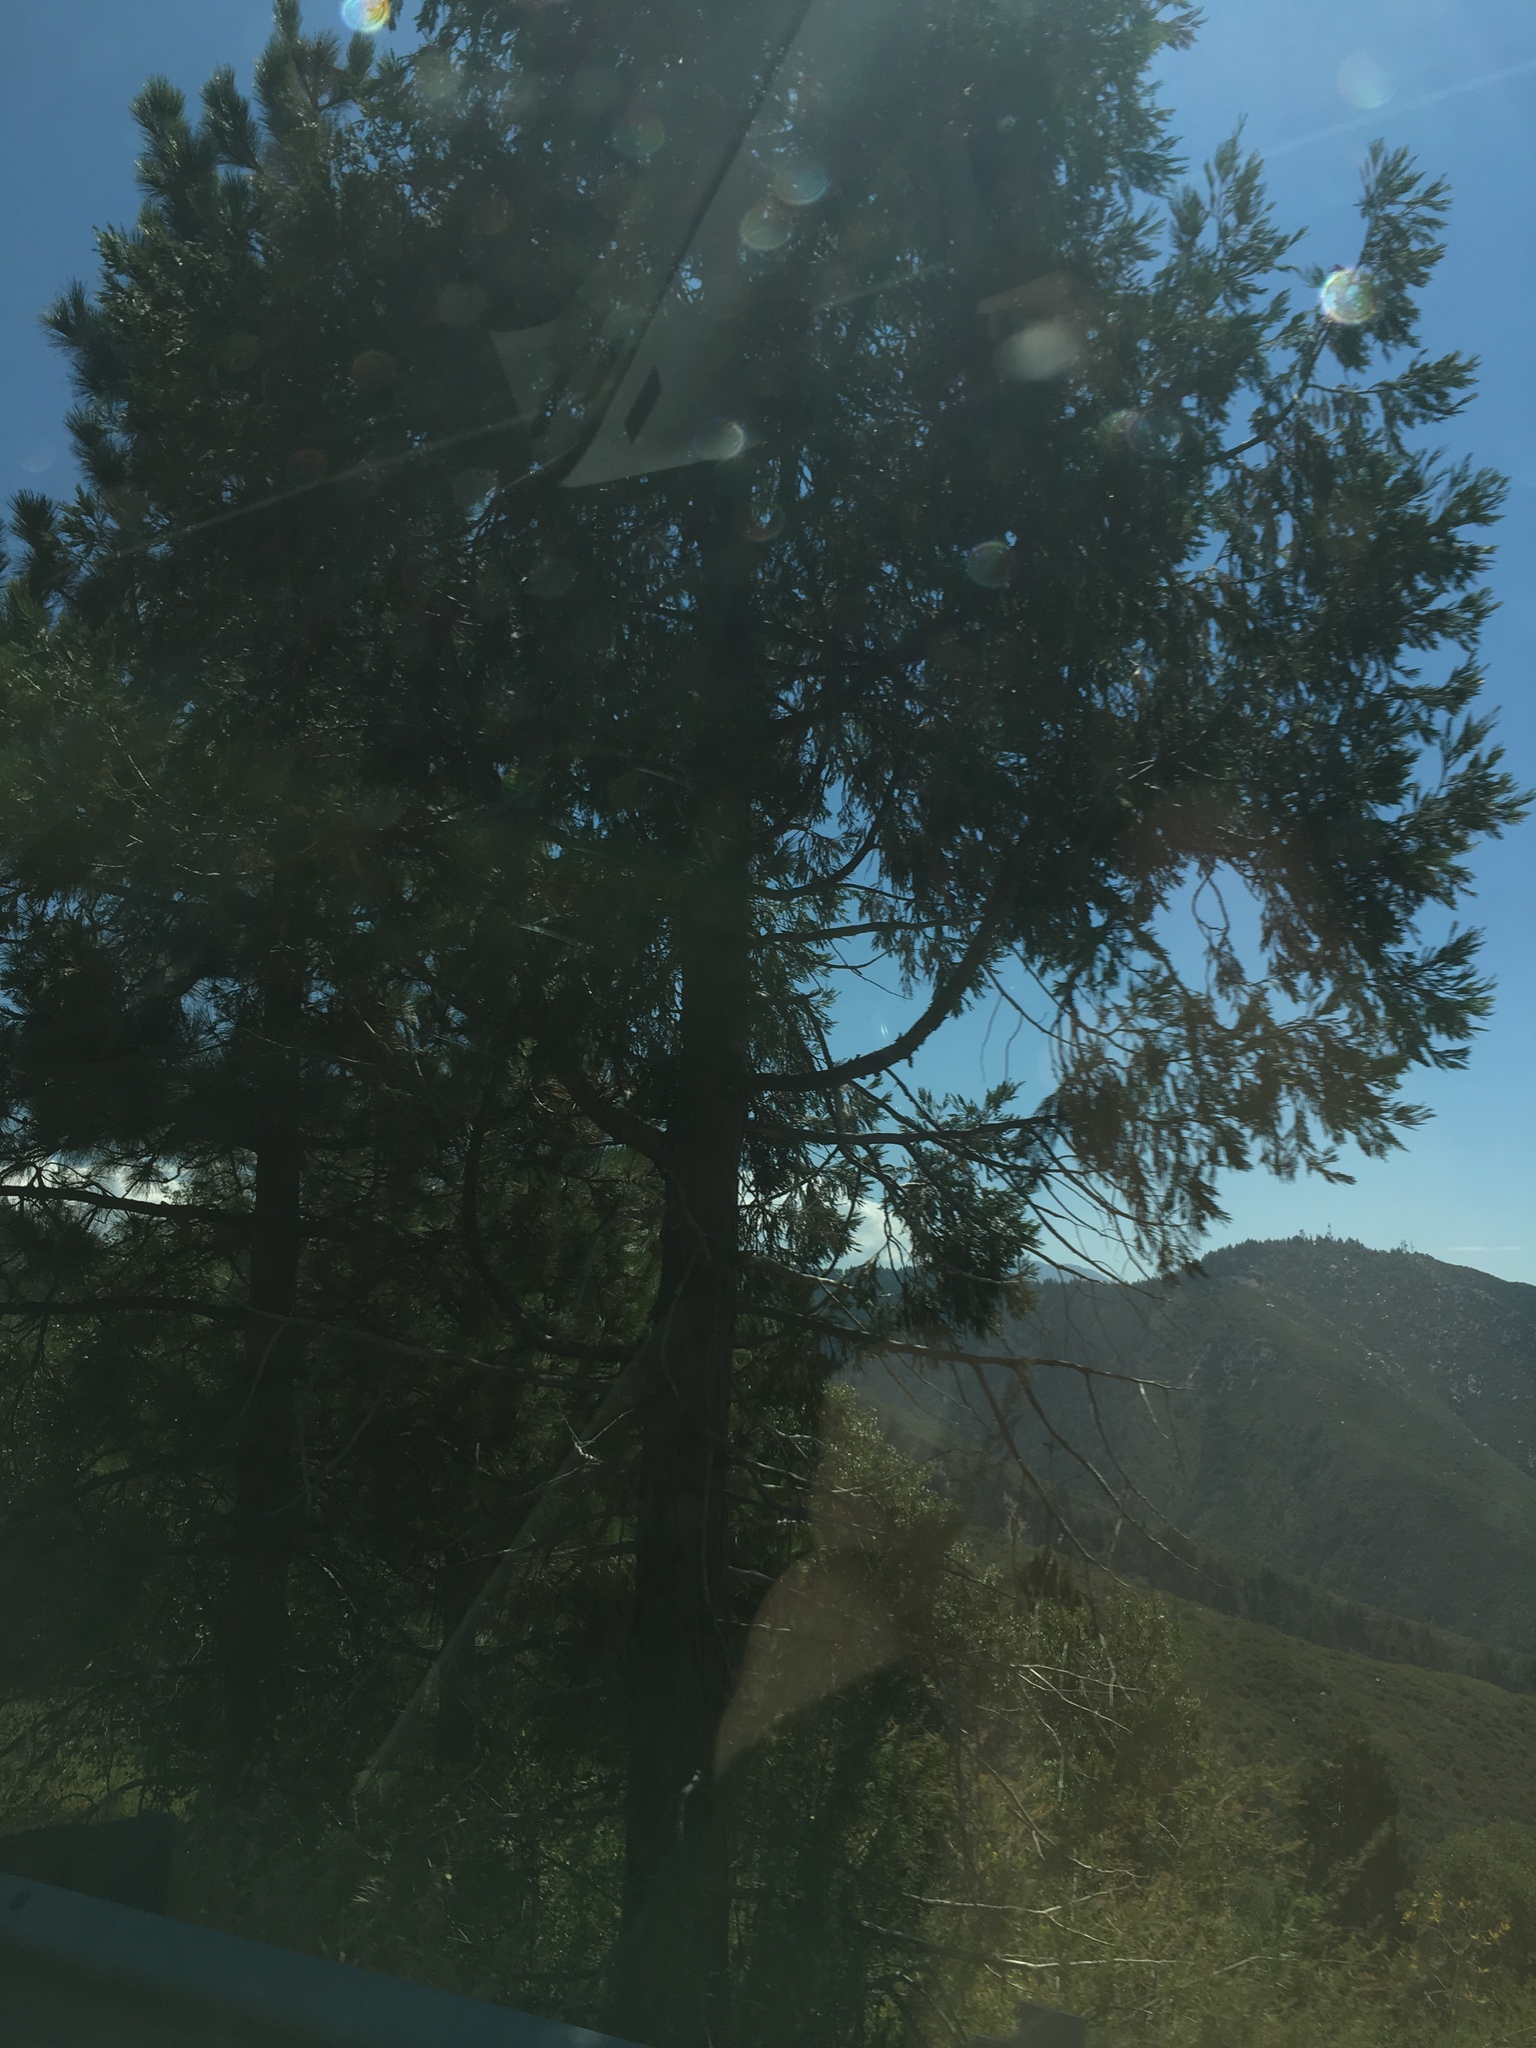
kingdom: Plantae
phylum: Tracheophyta
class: Pinopsida
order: Pinales
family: Cupressaceae
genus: Calocedrus
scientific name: Calocedrus decurrens
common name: Californian incense-cedar
